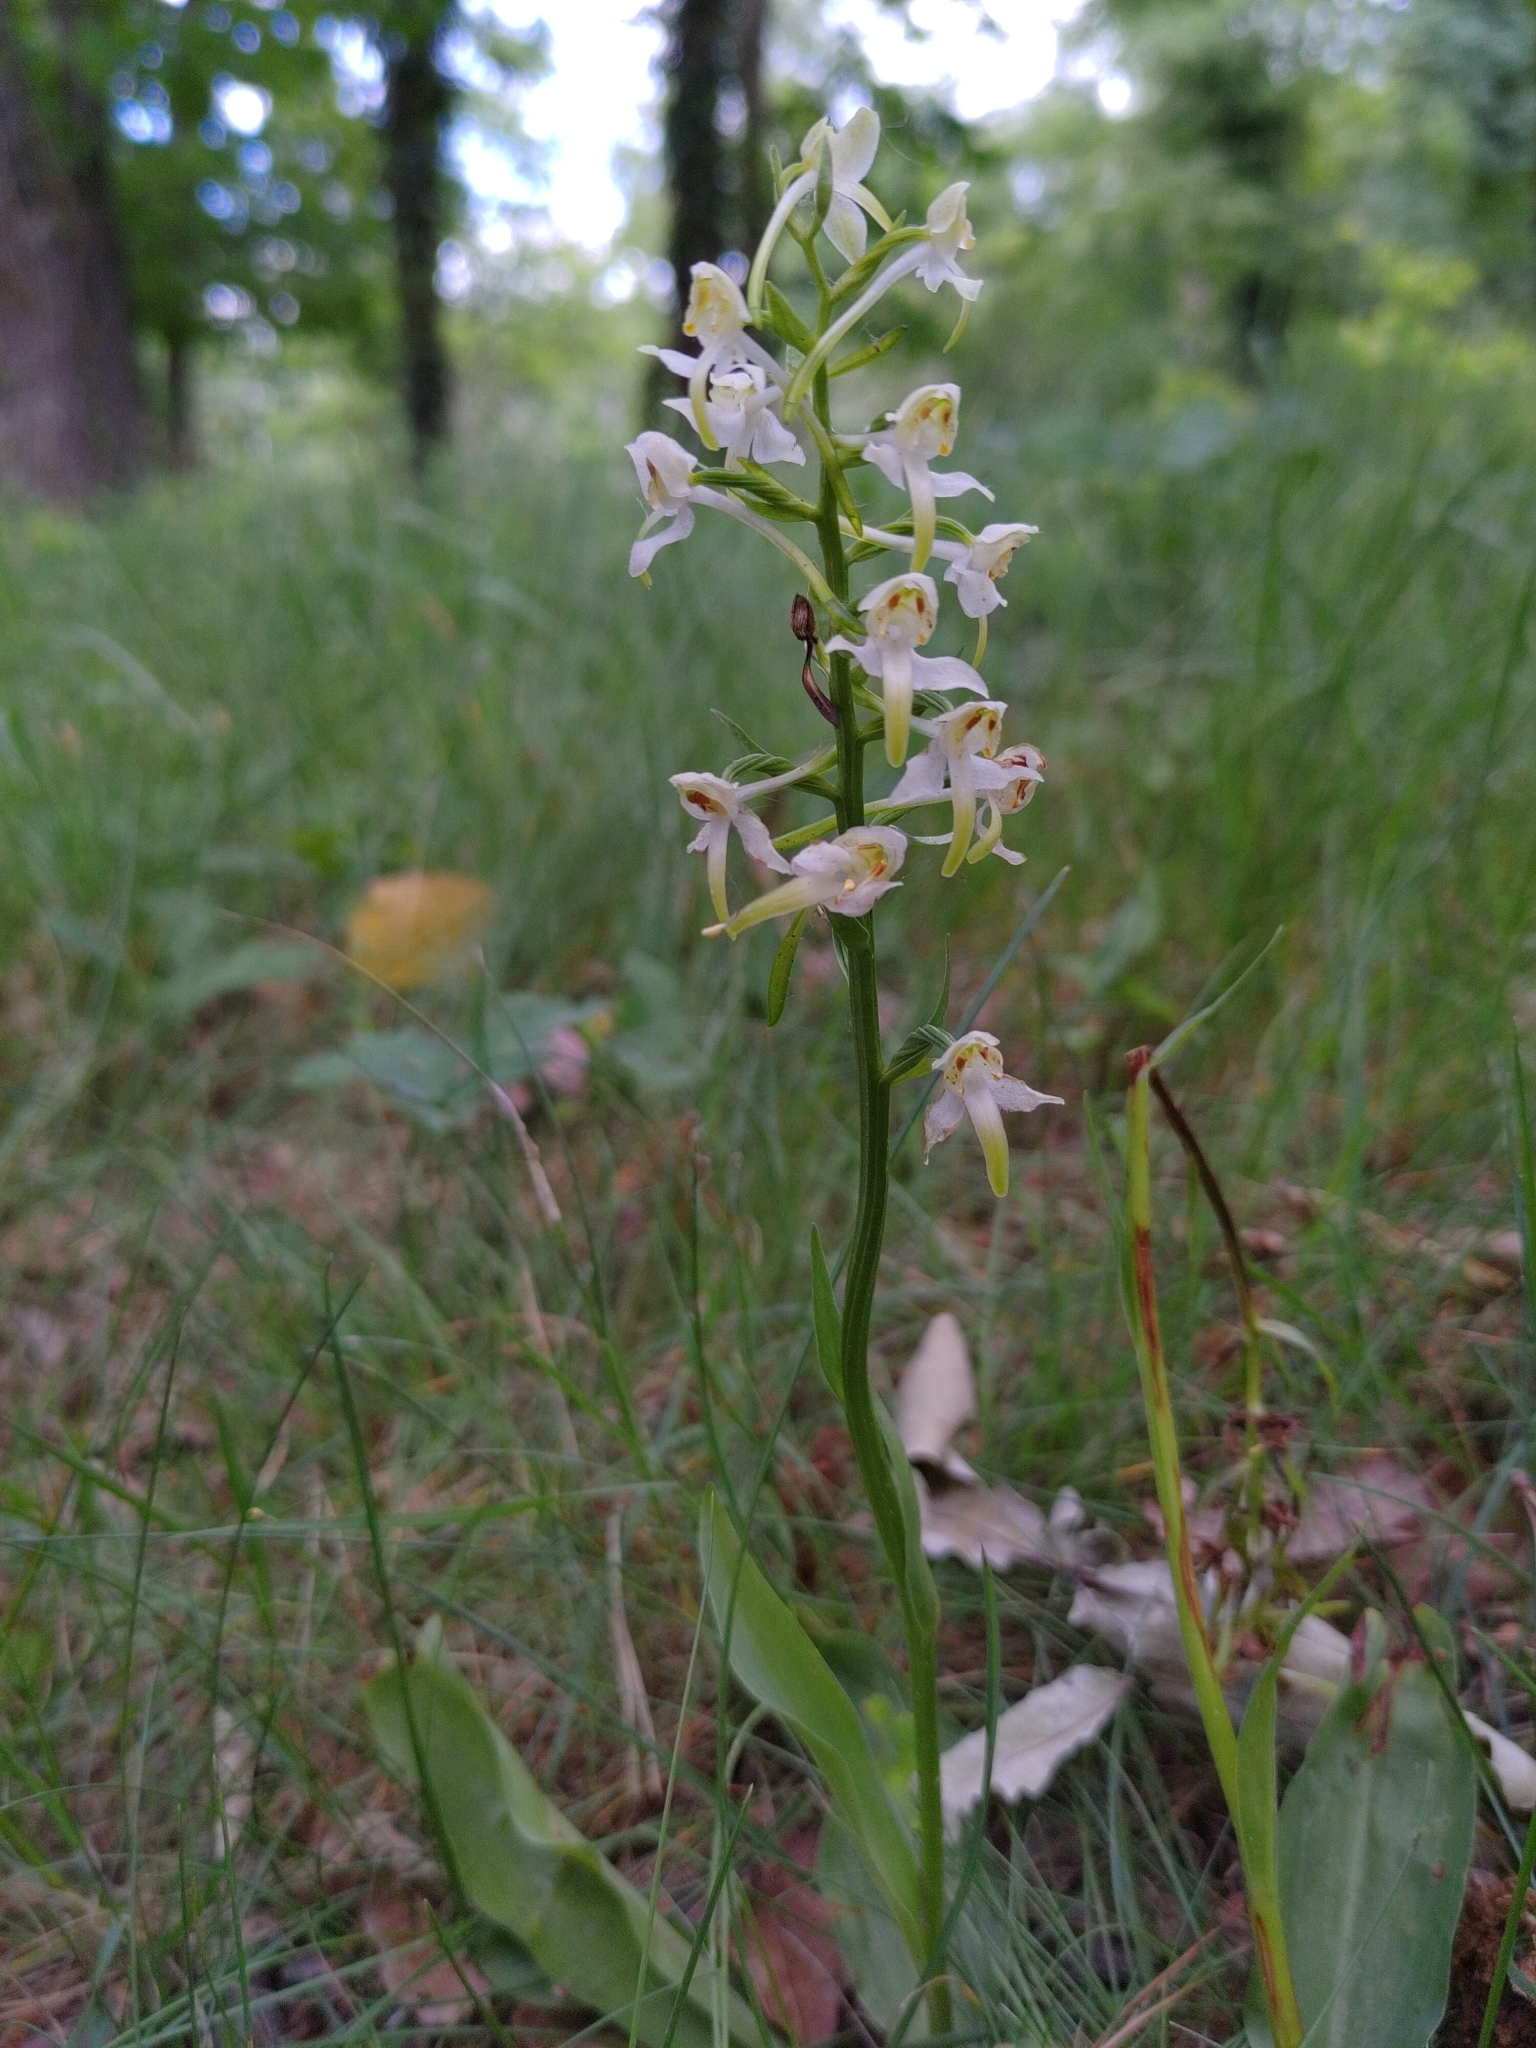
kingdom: Plantae
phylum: Tracheophyta
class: Liliopsida
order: Asparagales
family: Orchidaceae
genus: Platanthera
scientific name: Platanthera chlorantha
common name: Greater butterfly-orchid
